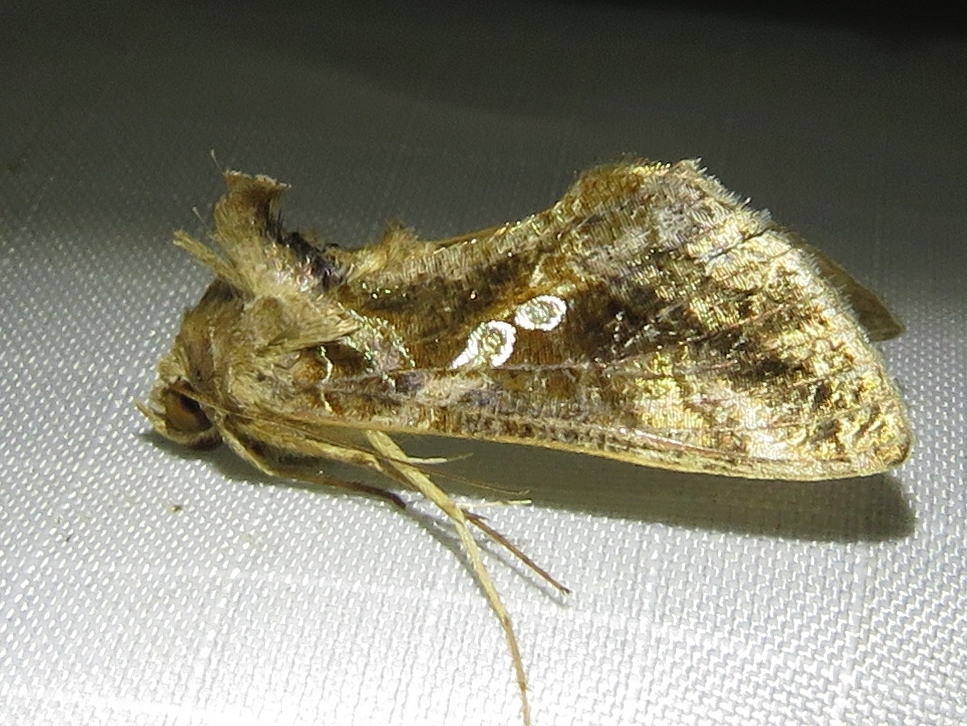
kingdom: Animalia
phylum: Arthropoda
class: Insecta
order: Lepidoptera
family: Noctuidae
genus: Chrysodeixis
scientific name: Chrysodeixis includens
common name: Cutworm moth
